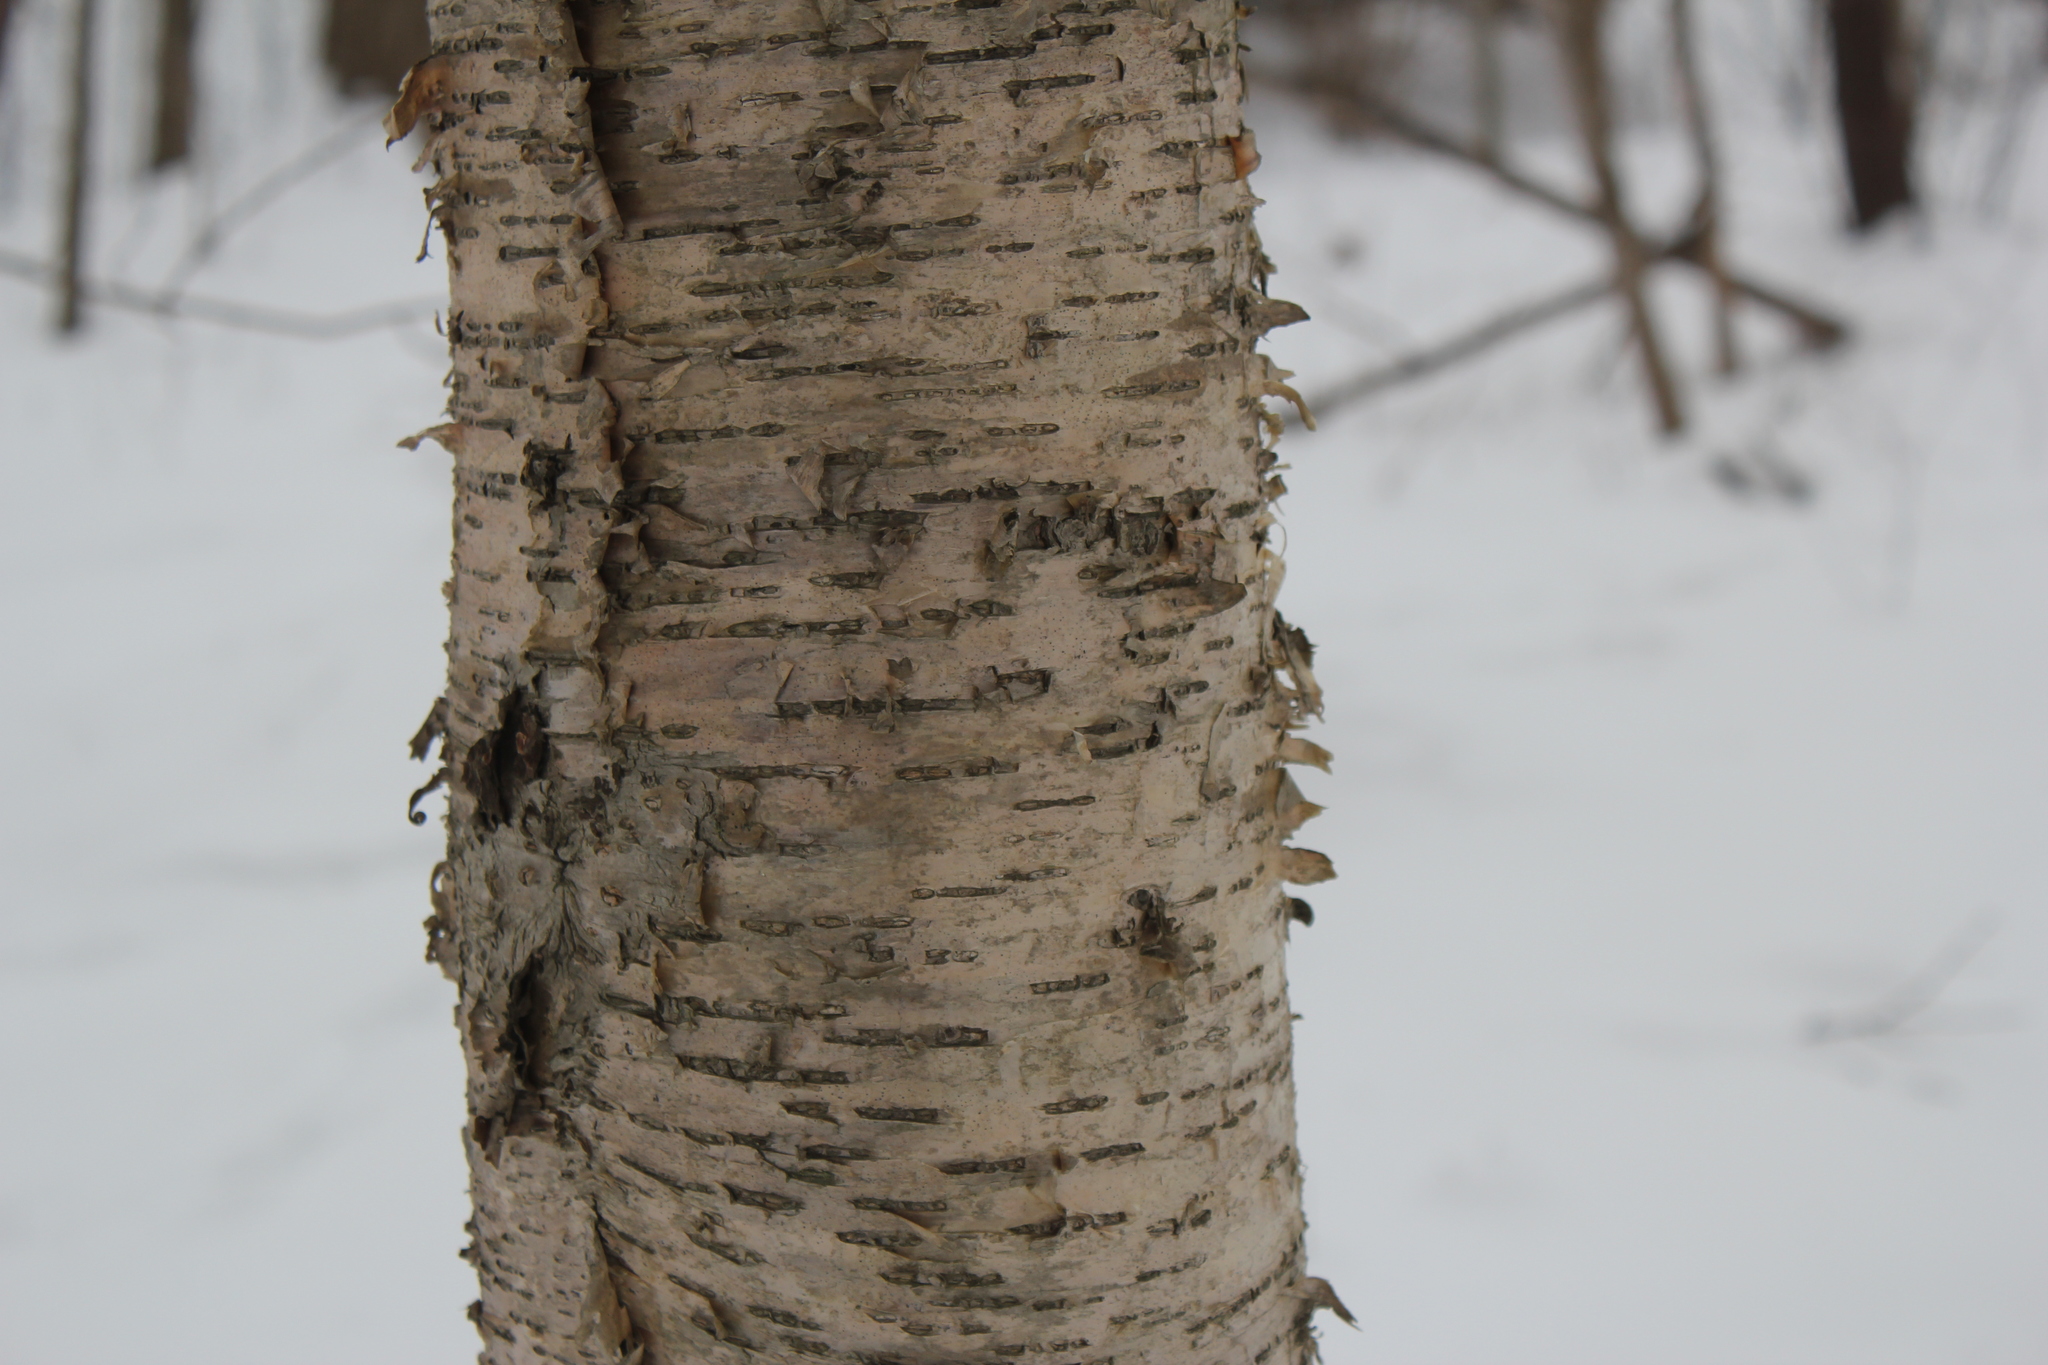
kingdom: Plantae
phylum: Tracheophyta
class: Magnoliopsida
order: Fagales
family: Betulaceae
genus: Betula
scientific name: Betula alleghaniensis
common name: Yellow birch
